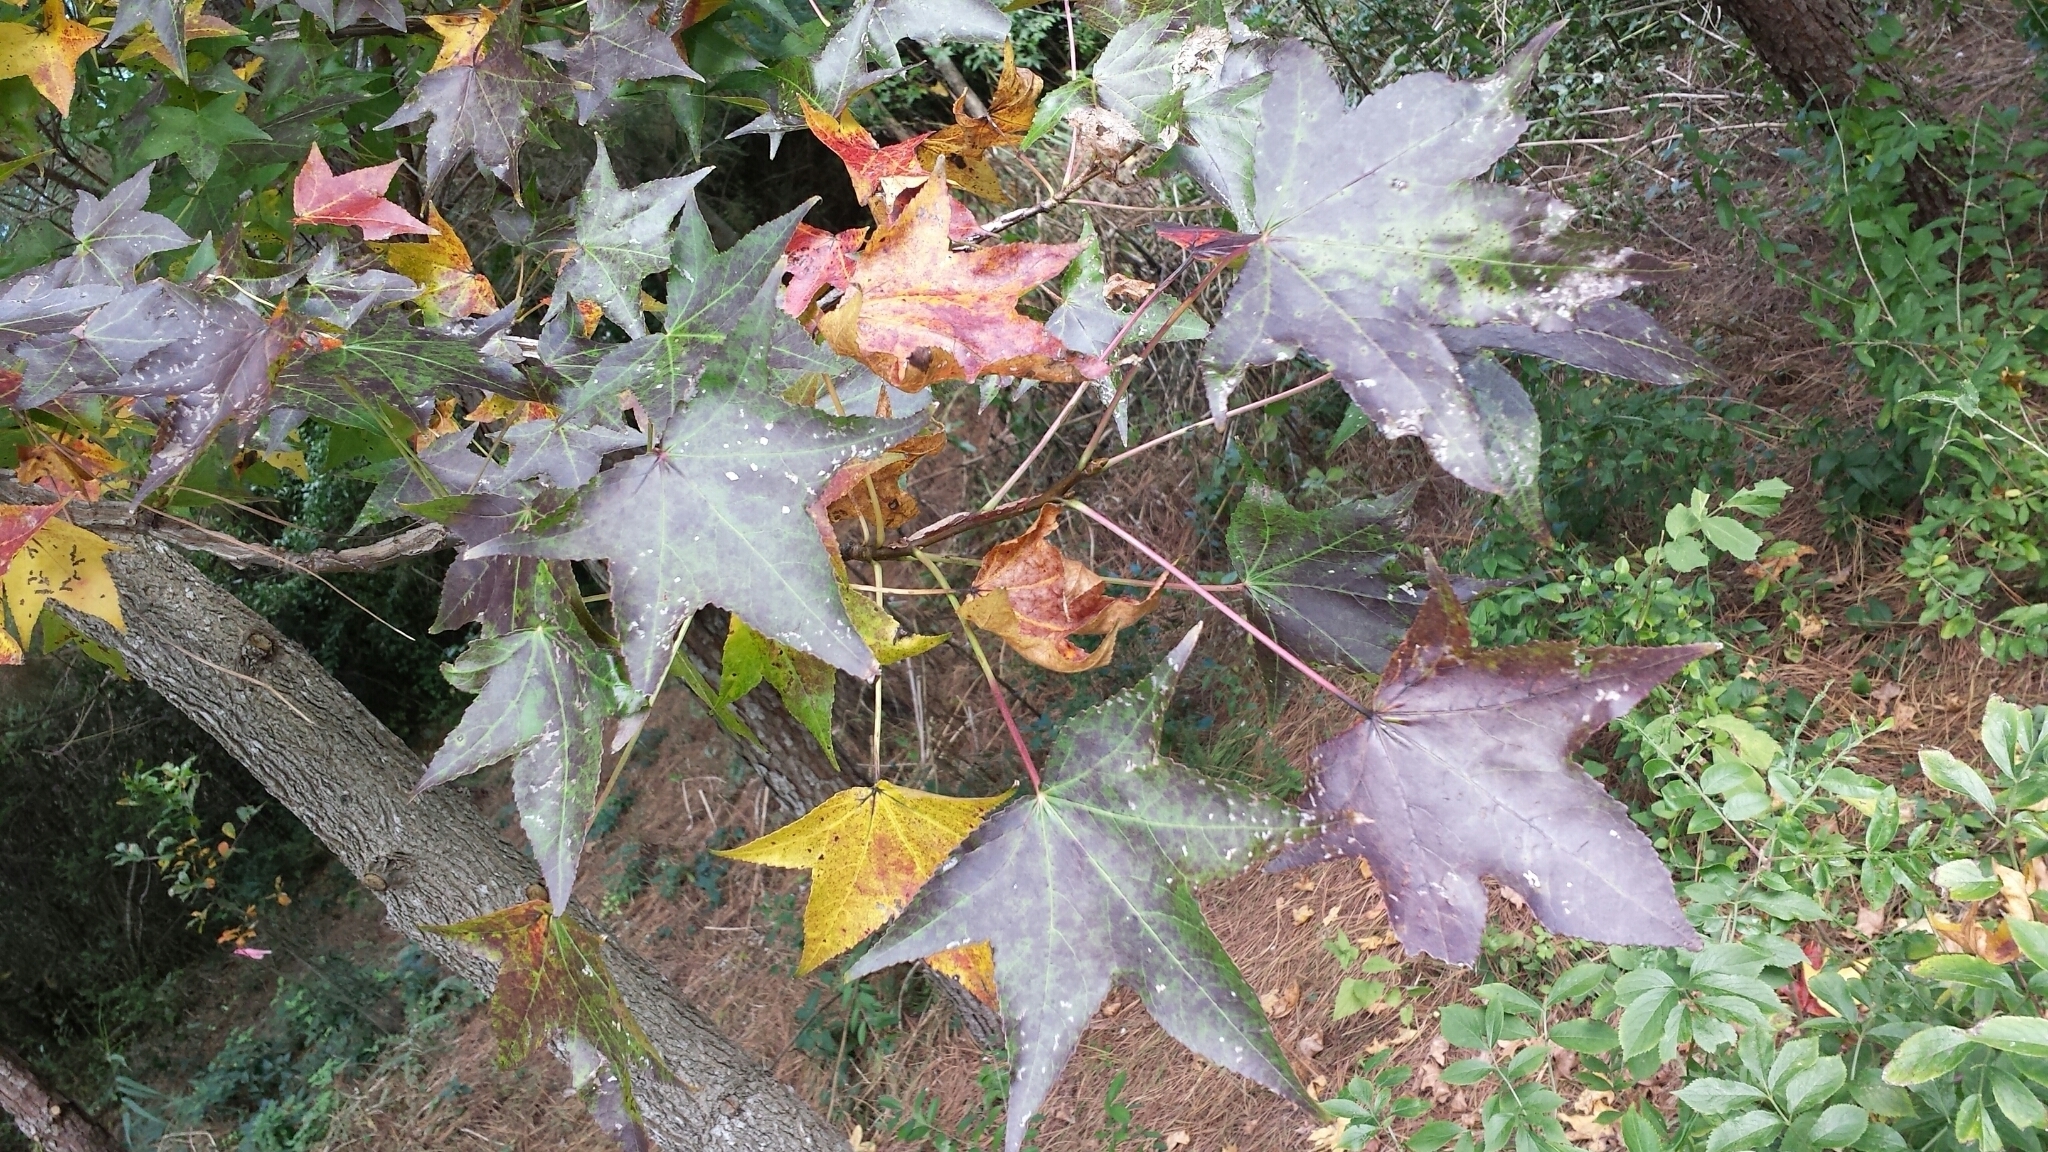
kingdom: Plantae
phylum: Tracheophyta
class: Magnoliopsida
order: Saxifragales
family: Altingiaceae
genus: Liquidambar
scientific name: Liquidambar styraciflua
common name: Sweet gum
